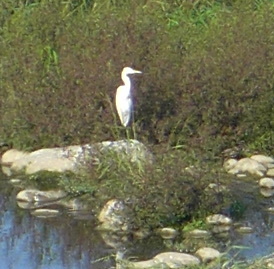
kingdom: Animalia
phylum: Chordata
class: Aves
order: Pelecaniformes
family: Ardeidae
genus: Ardea
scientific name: Ardea alba
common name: Great egret
